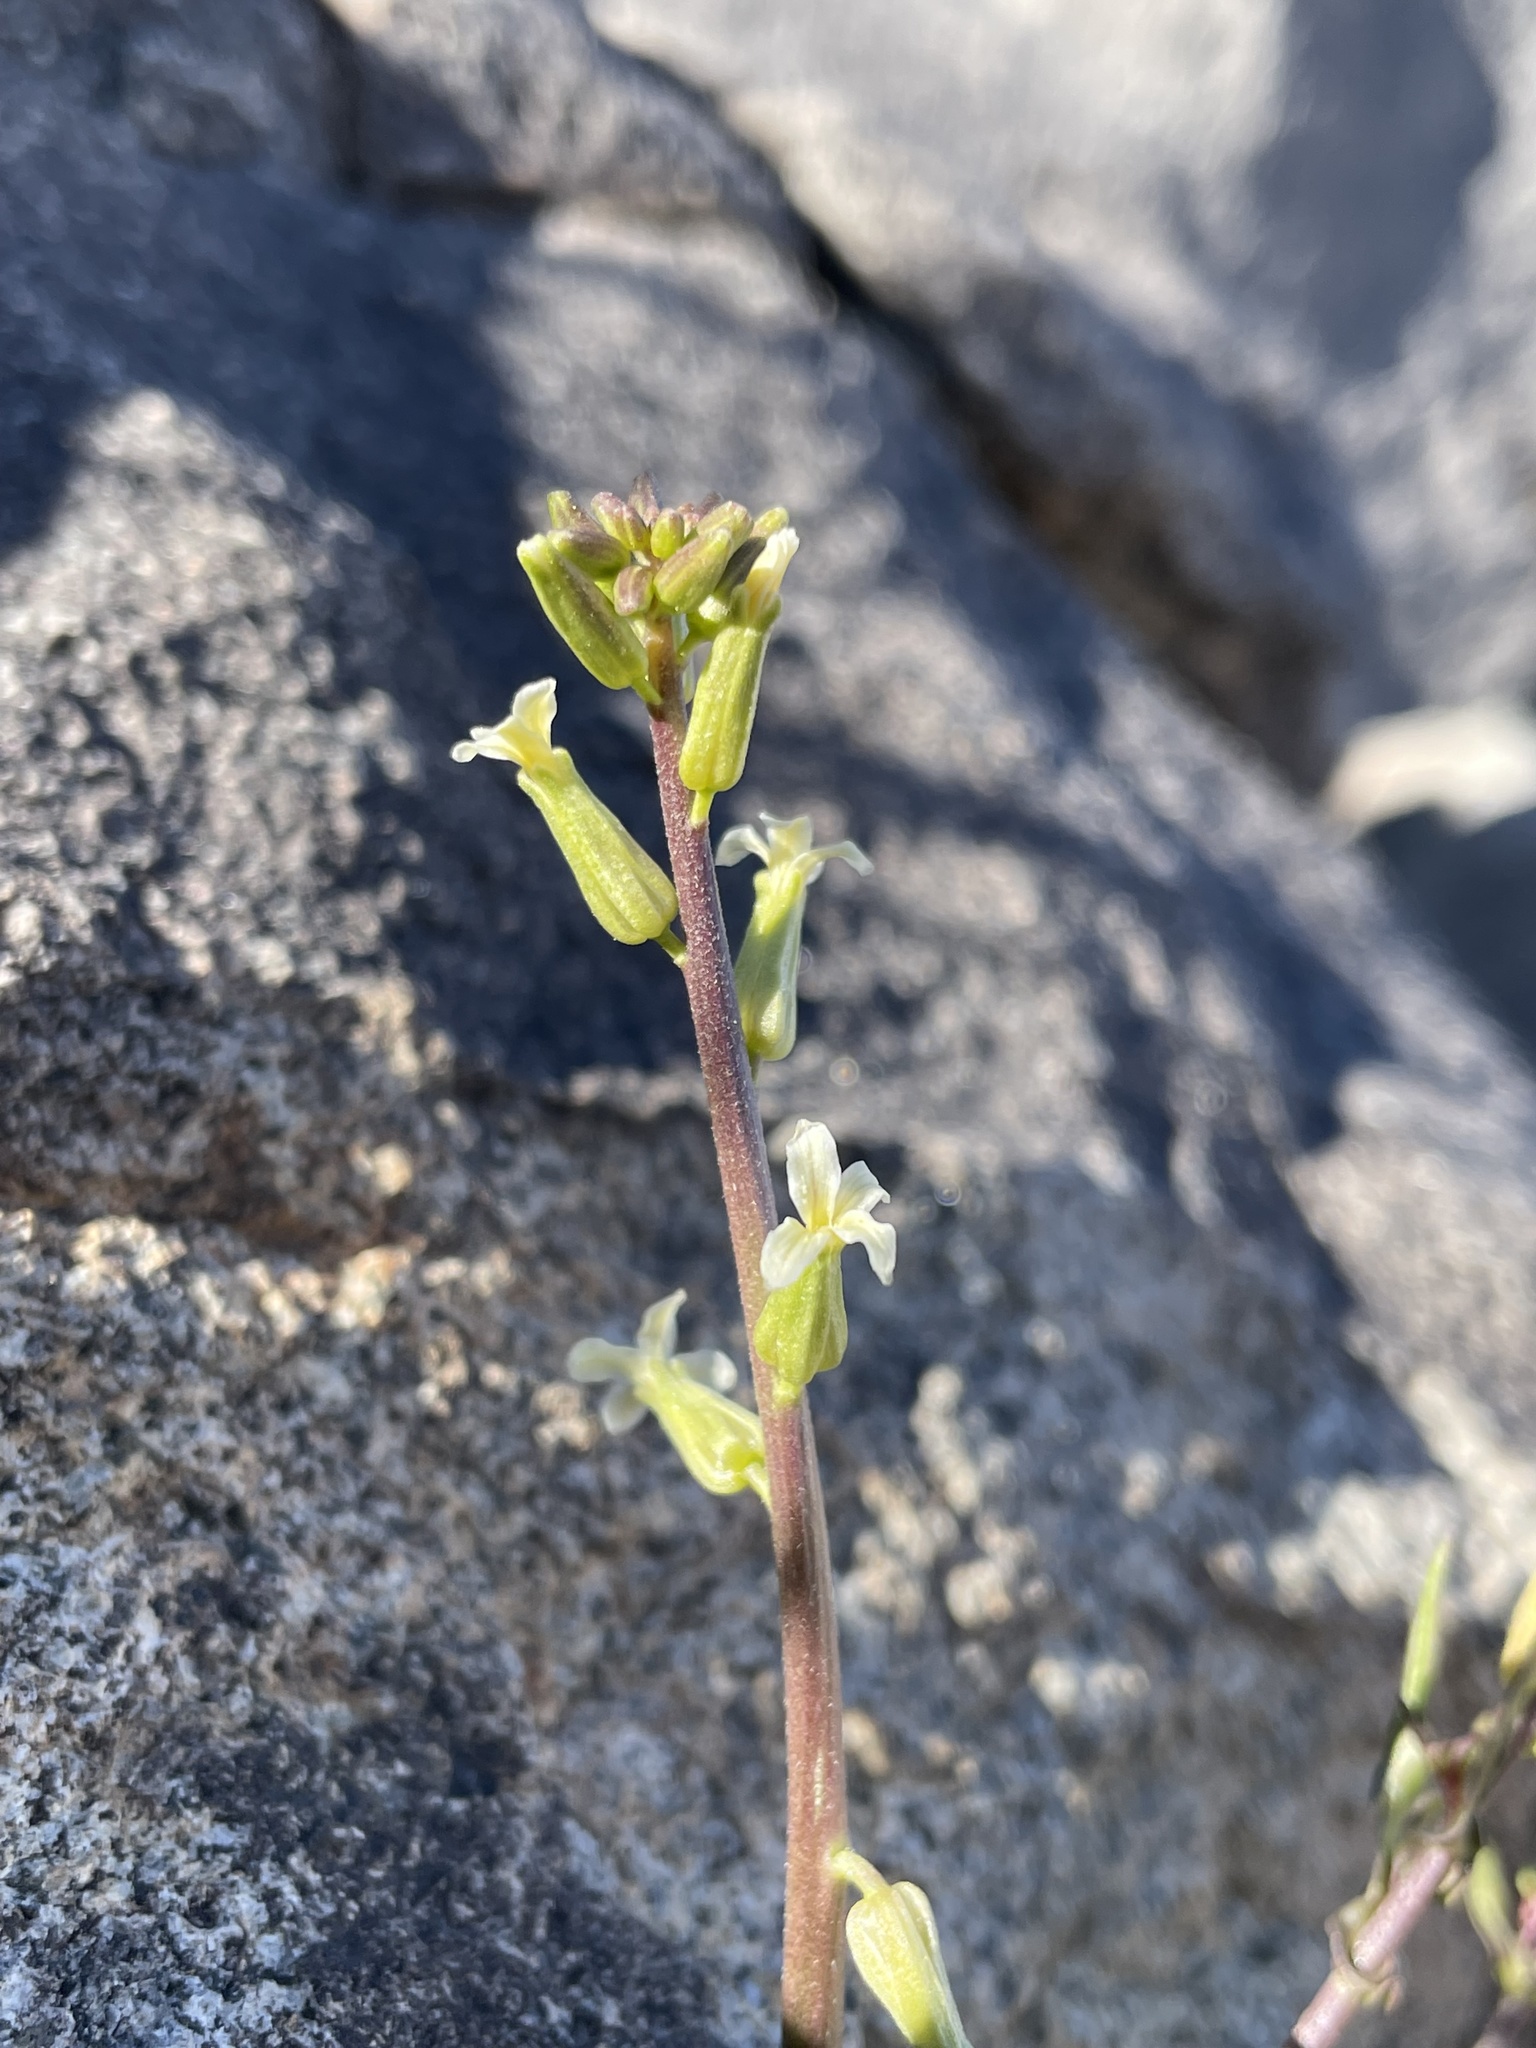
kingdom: Plantae
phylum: Tracheophyta
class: Magnoliopsida
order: Brassicales
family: Brassicaceae
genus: Streptanthus
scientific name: Streptanthus cooperi
